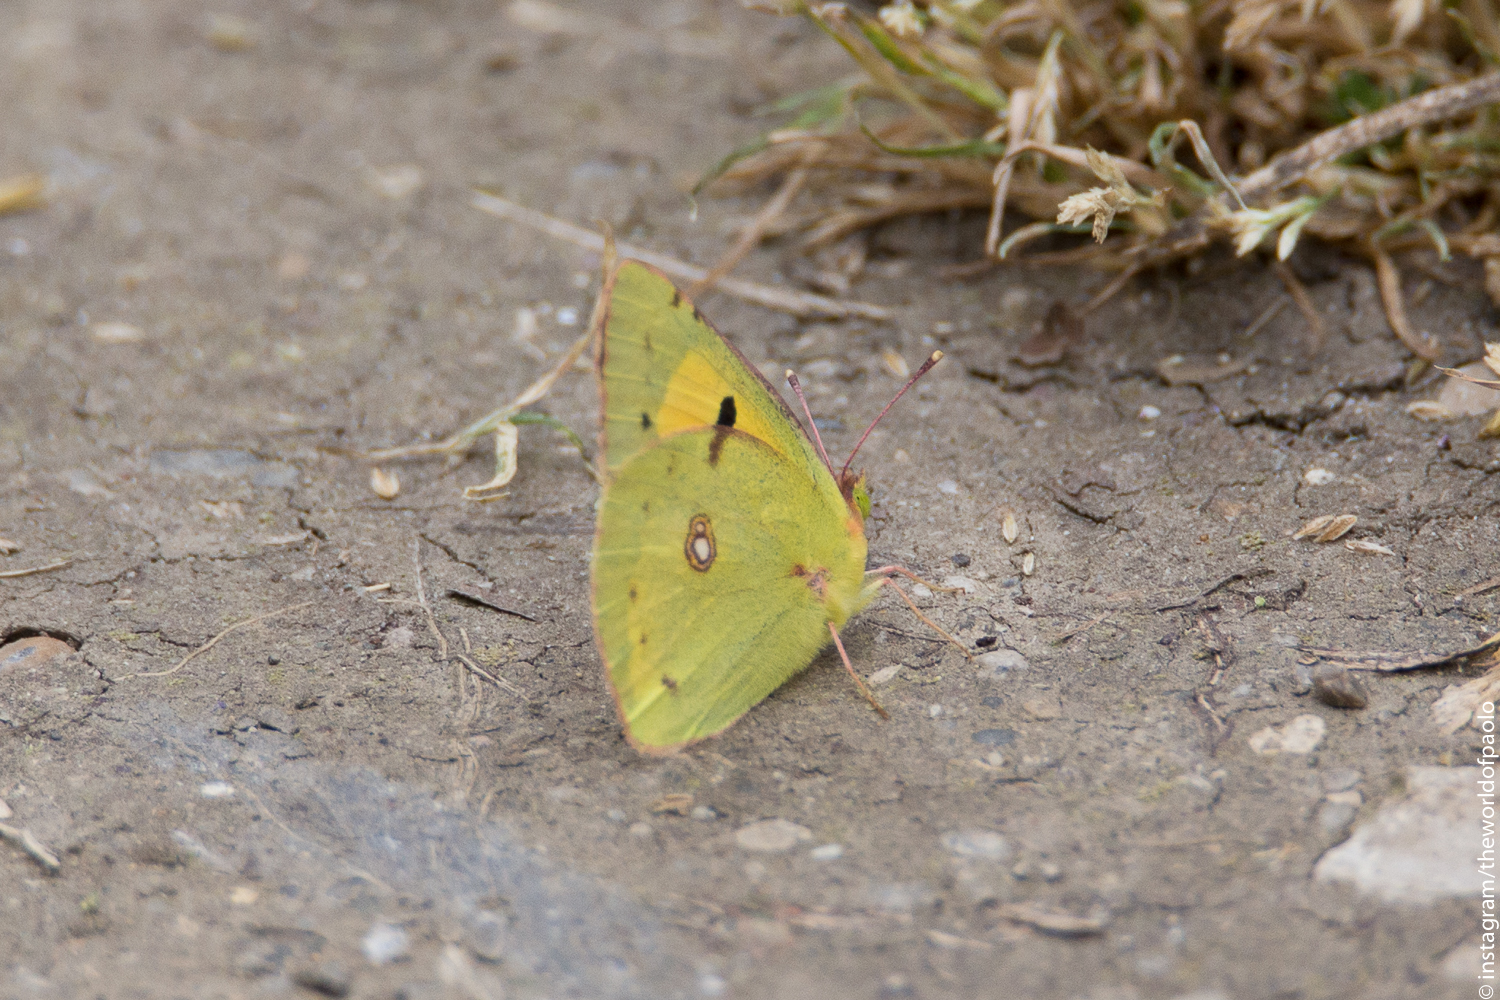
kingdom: Animalia
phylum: Arthropoda
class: Insecta
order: Lepidoptera
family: Pieridae
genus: Colias
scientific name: Colias croceus
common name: Clouded yellow
